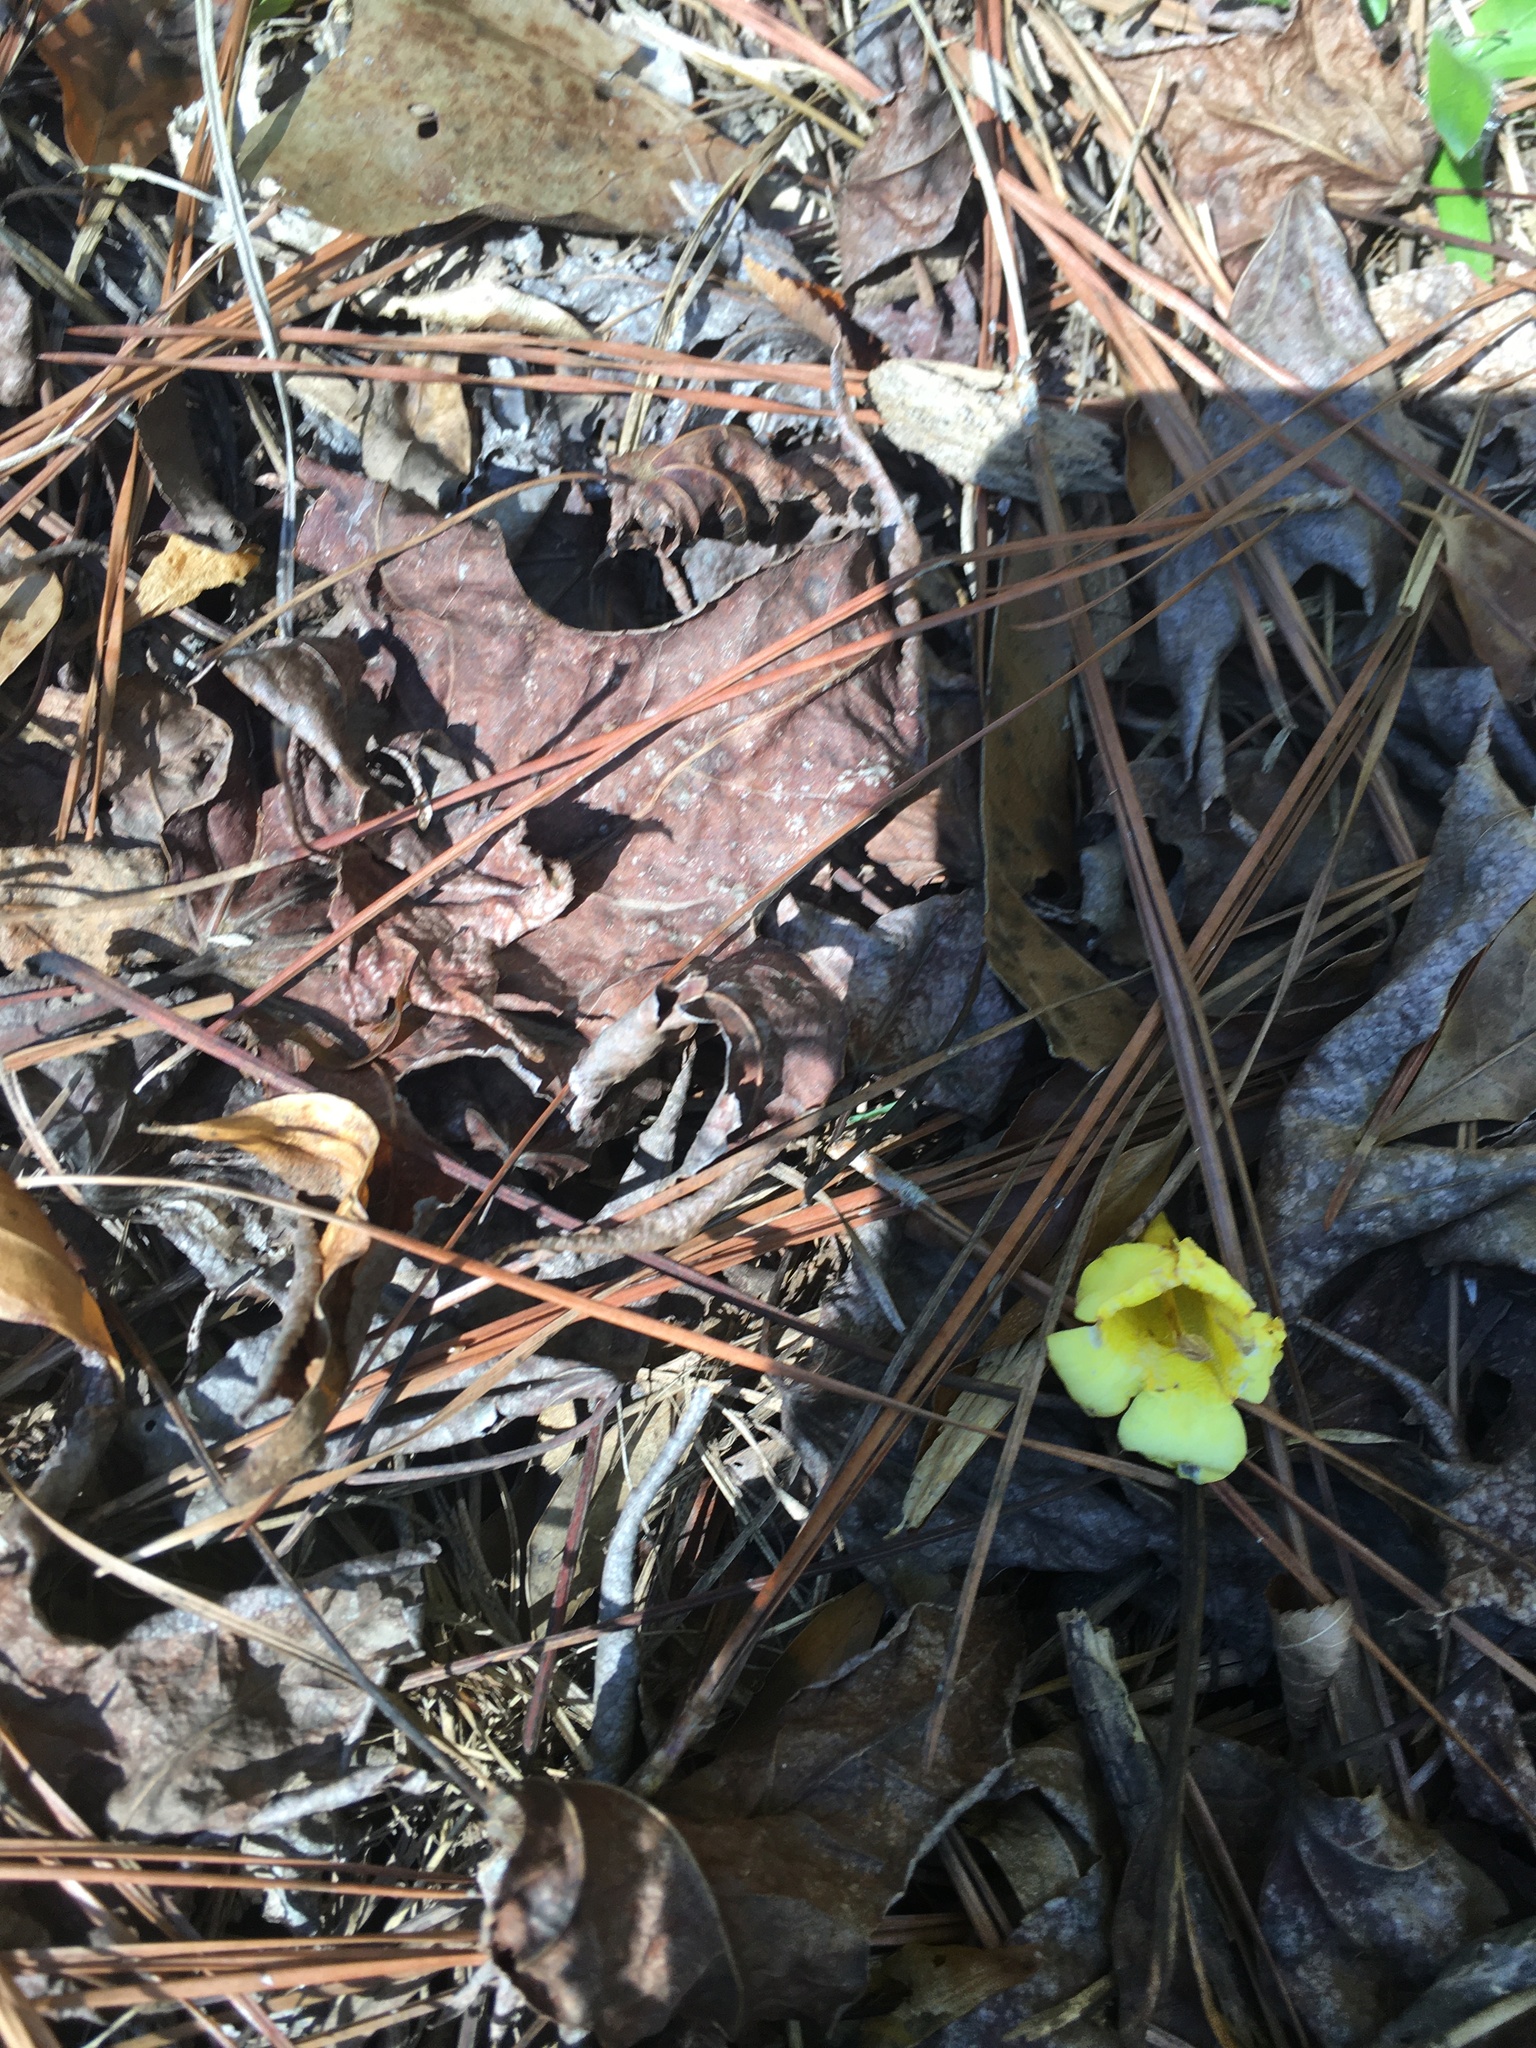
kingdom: Plantae
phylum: Tracheophyta
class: Magnoliopsida
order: Gentianales
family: Gelsemiaceae
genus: Gelsemium
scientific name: Gelsemium sempervirens
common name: Carolina-jasmine
